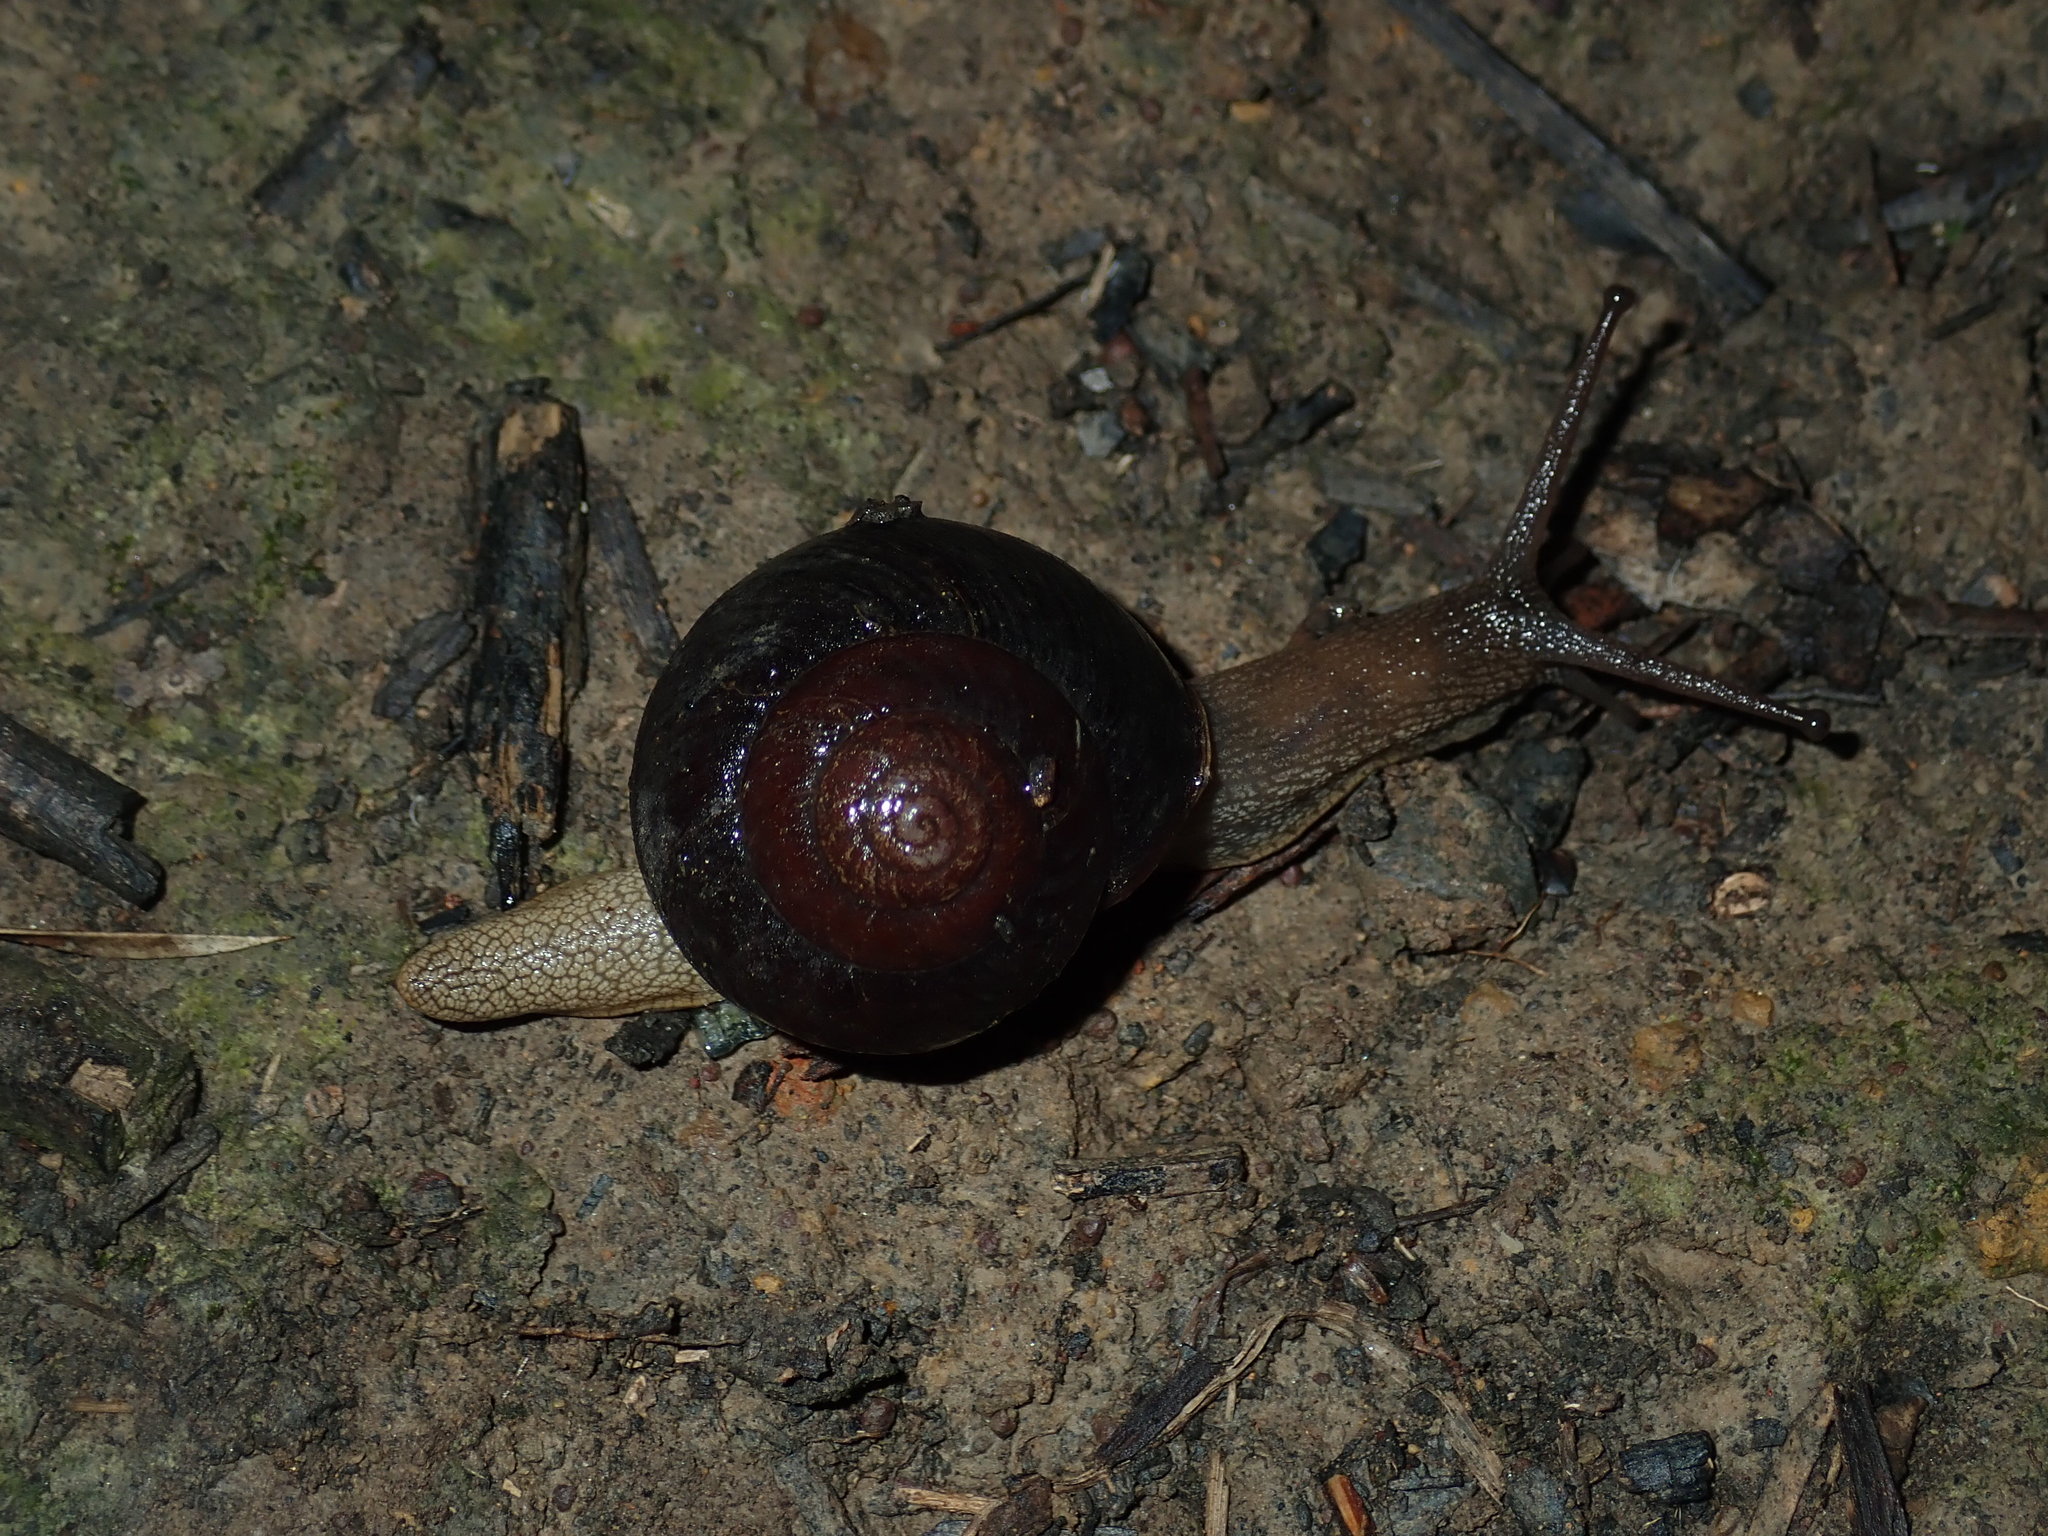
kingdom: Animalia
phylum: Mollusca
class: Gastropoda
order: Stylommatophora
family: Camaenidae
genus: Sauroconcha
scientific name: Sauroconcha sheai
